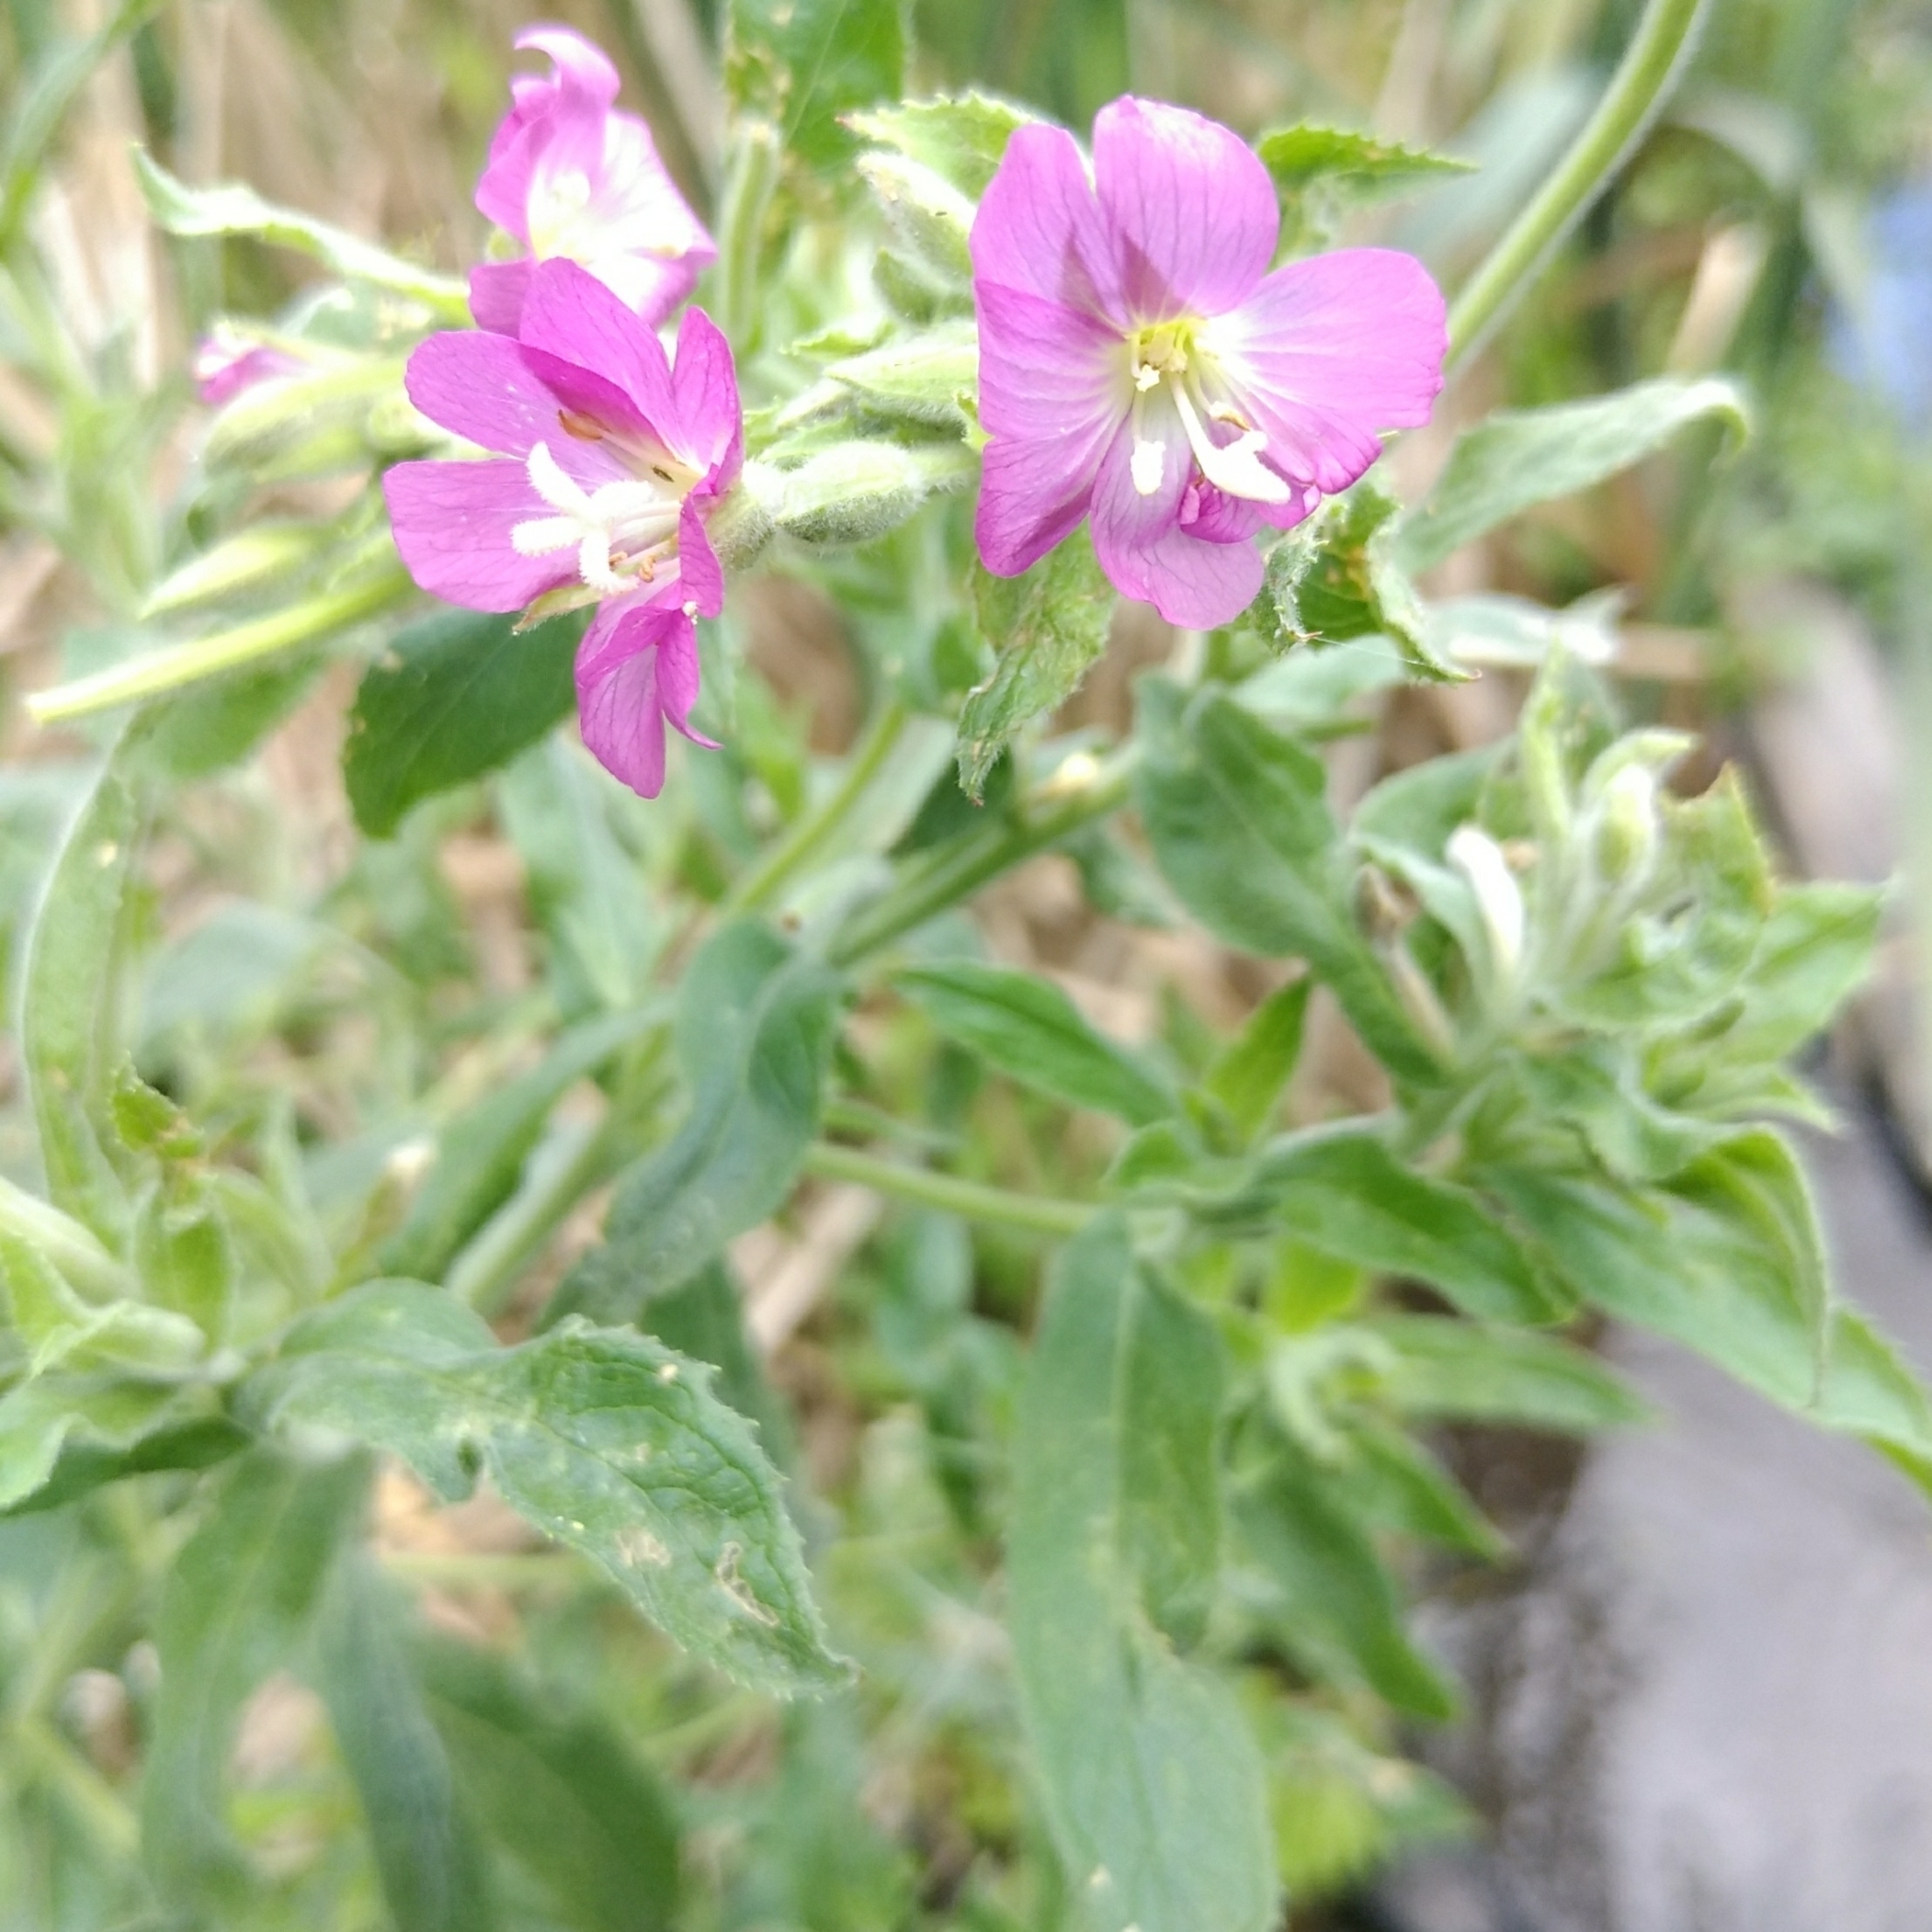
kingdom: Plantae
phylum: Tracheophyta
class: Magnoliopsida
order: Myrtales
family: Onagraceae
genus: Epilobium
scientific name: Epilobium hirsutum
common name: Great willowherb
